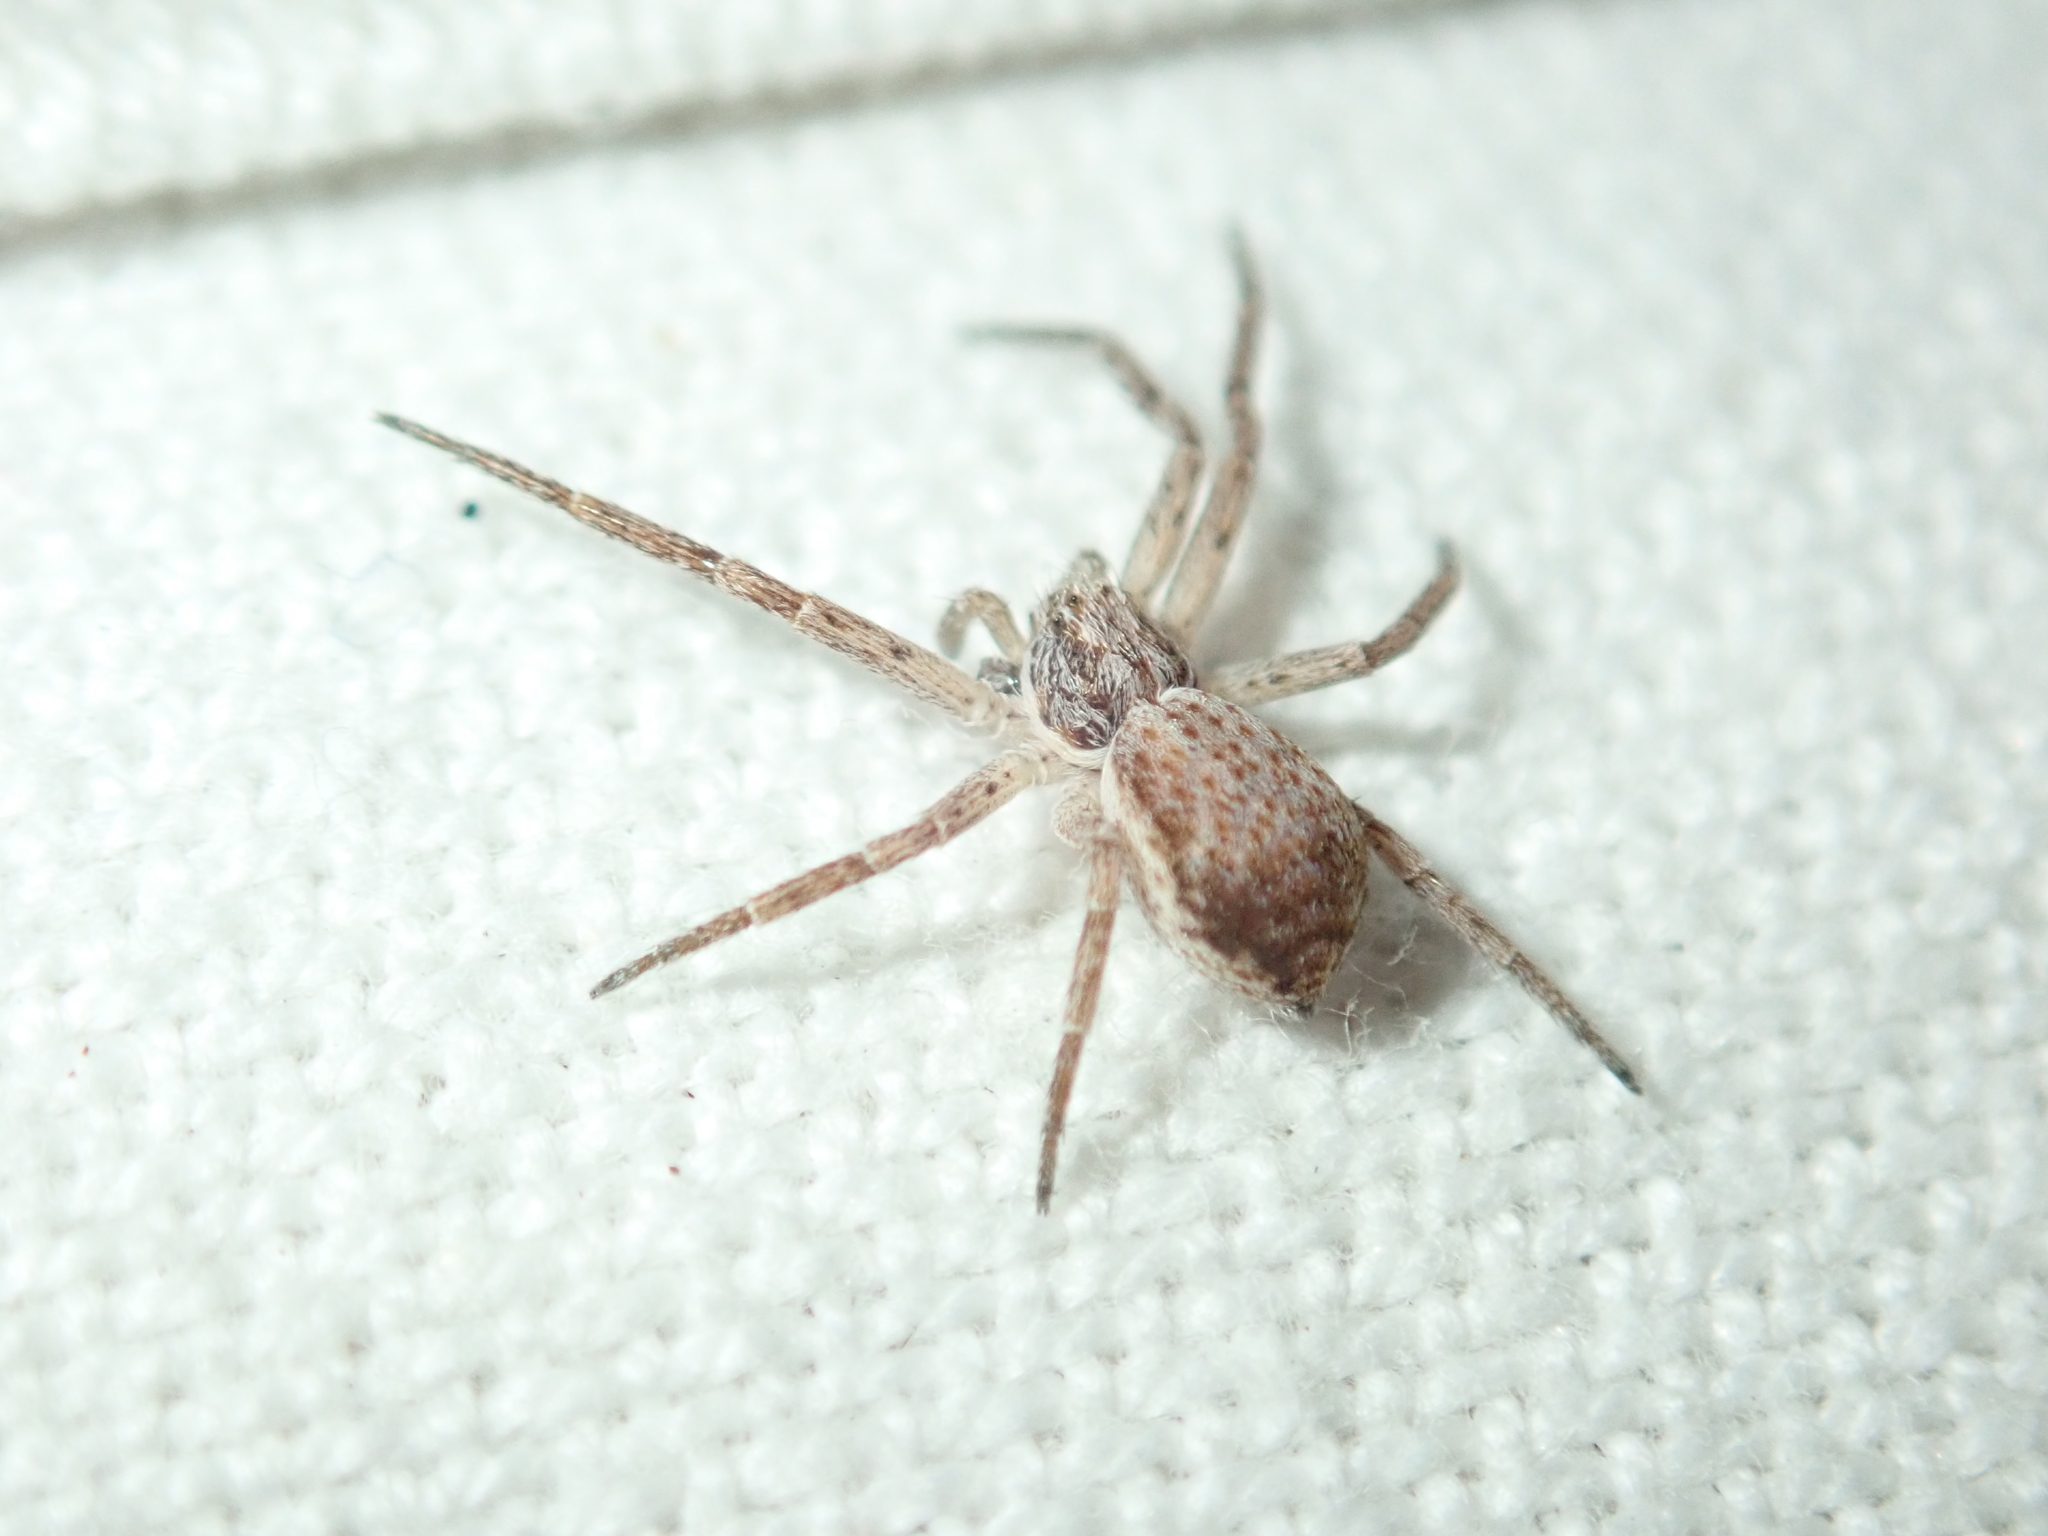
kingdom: Animalia
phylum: Arthropoda
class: Arachnida
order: Araneae
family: Philodromidae
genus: Philodromus
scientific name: Philodromus dispar
